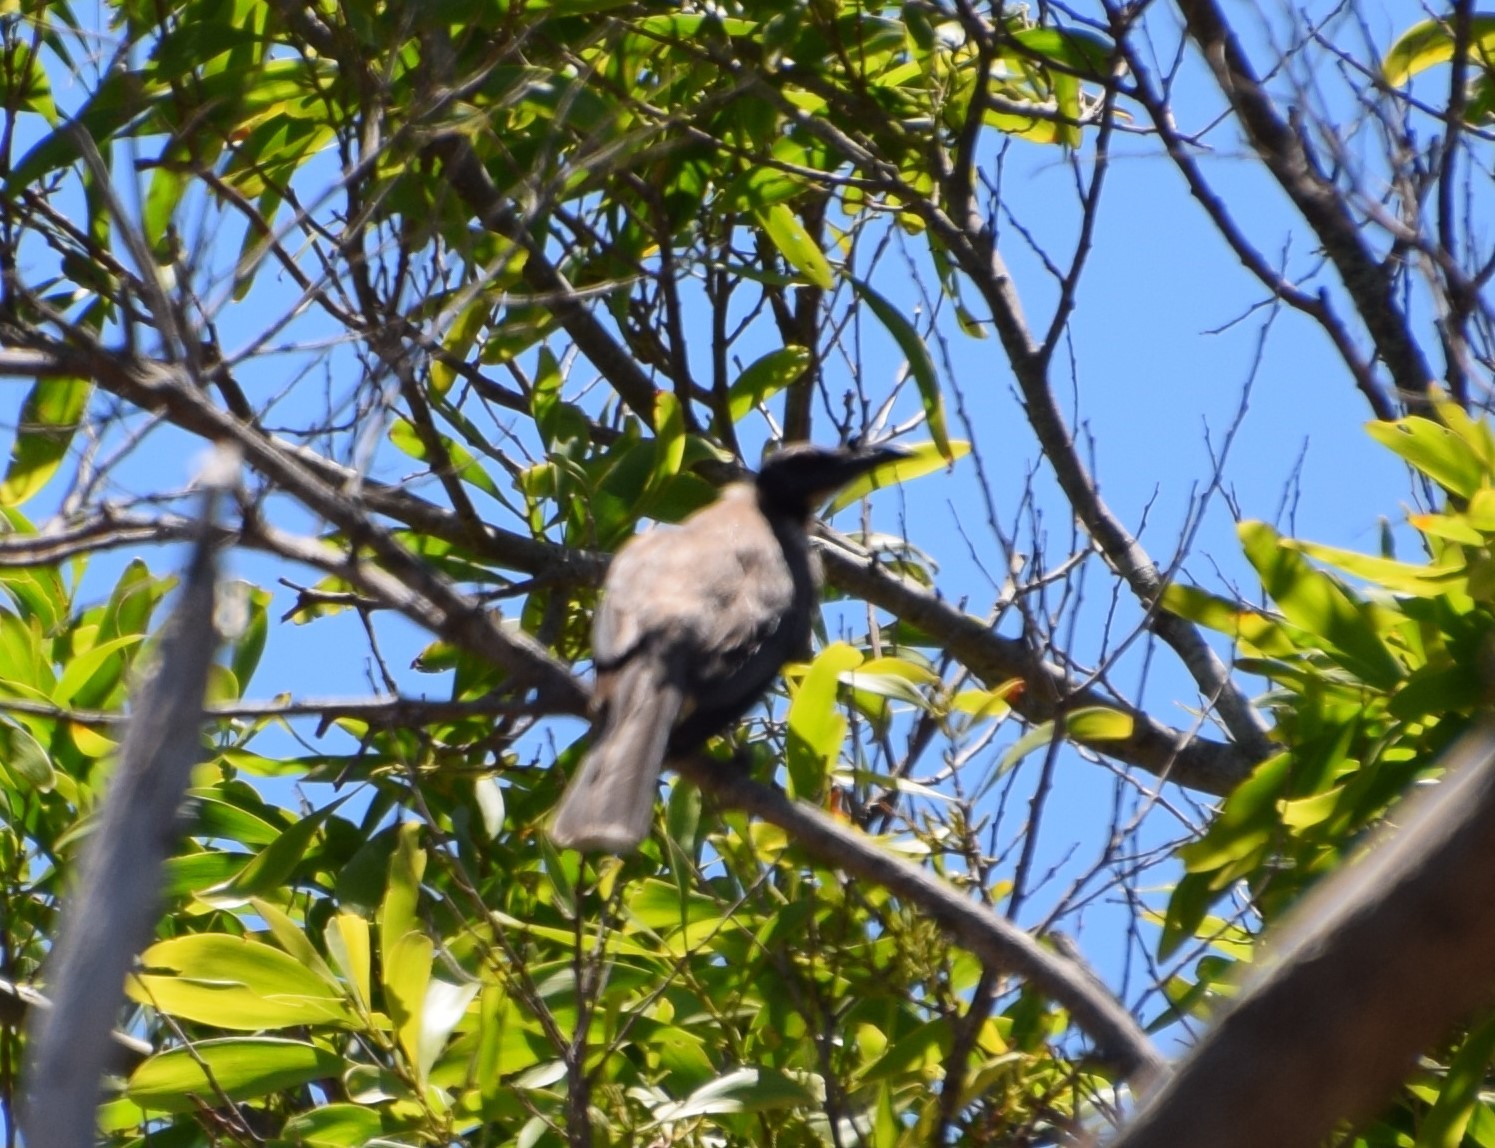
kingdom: Animalia
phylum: Chordata
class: Aves
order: Passeriformes
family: Meliphagidae
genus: Philemon
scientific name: Philemon corniculatus
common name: Noisy friarbird
